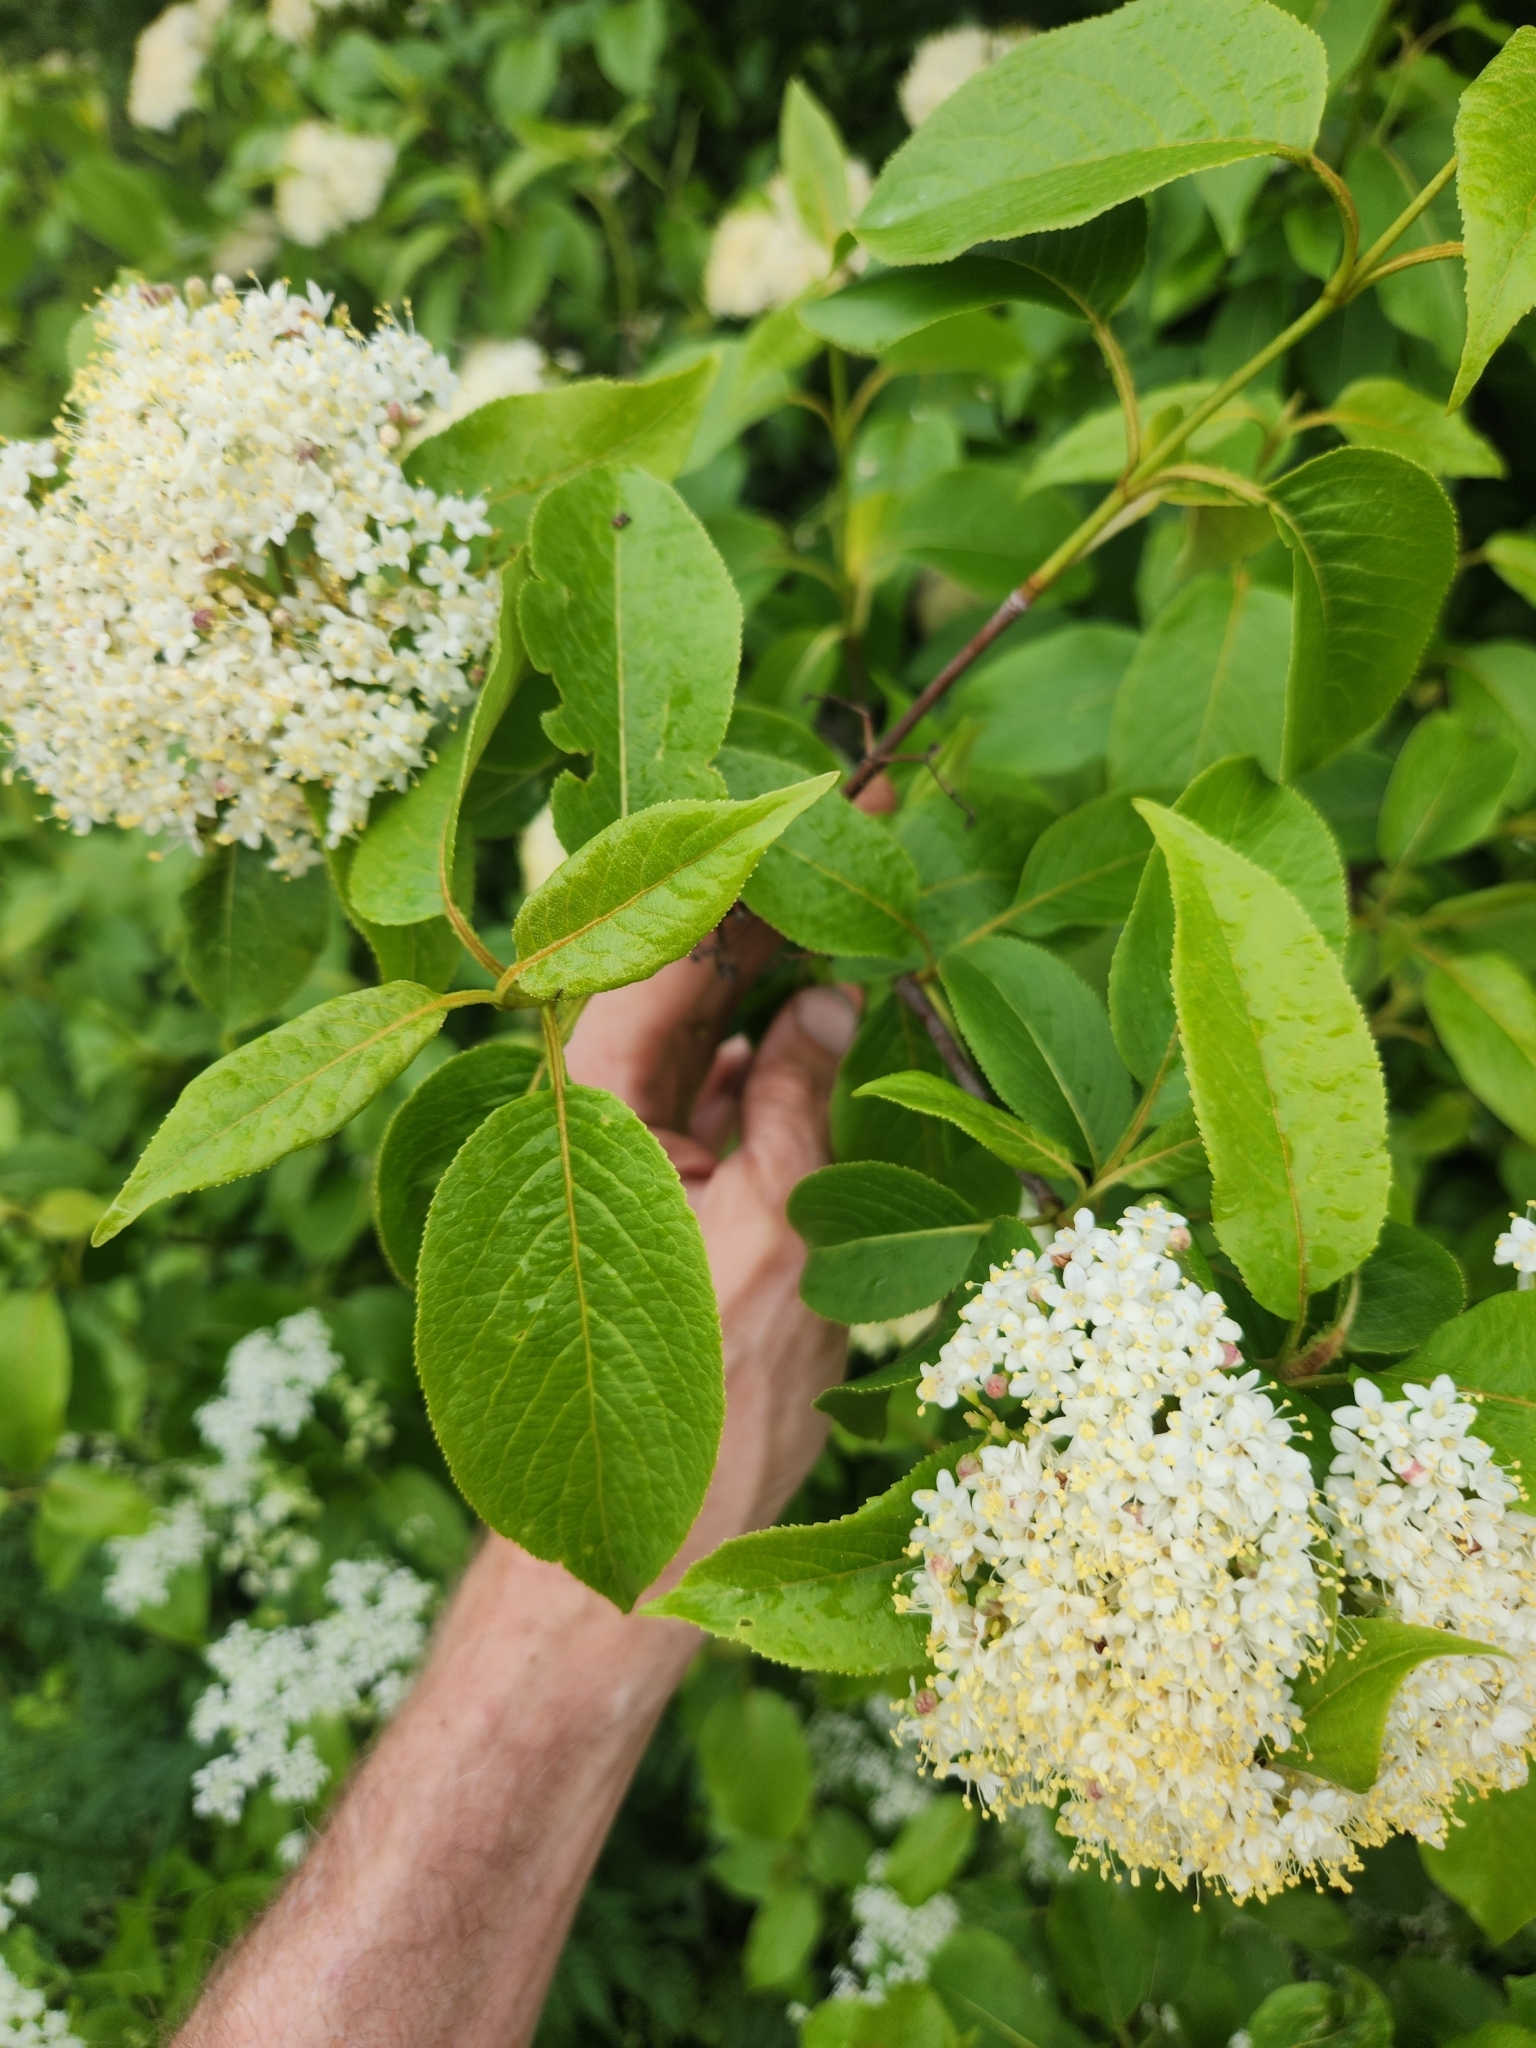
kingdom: Plantae
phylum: Tracheophyta
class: Magnoliopsida
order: Dipsacales
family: Viburnaceae
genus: Viburnum
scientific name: Viburnum lentago
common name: Black haw
